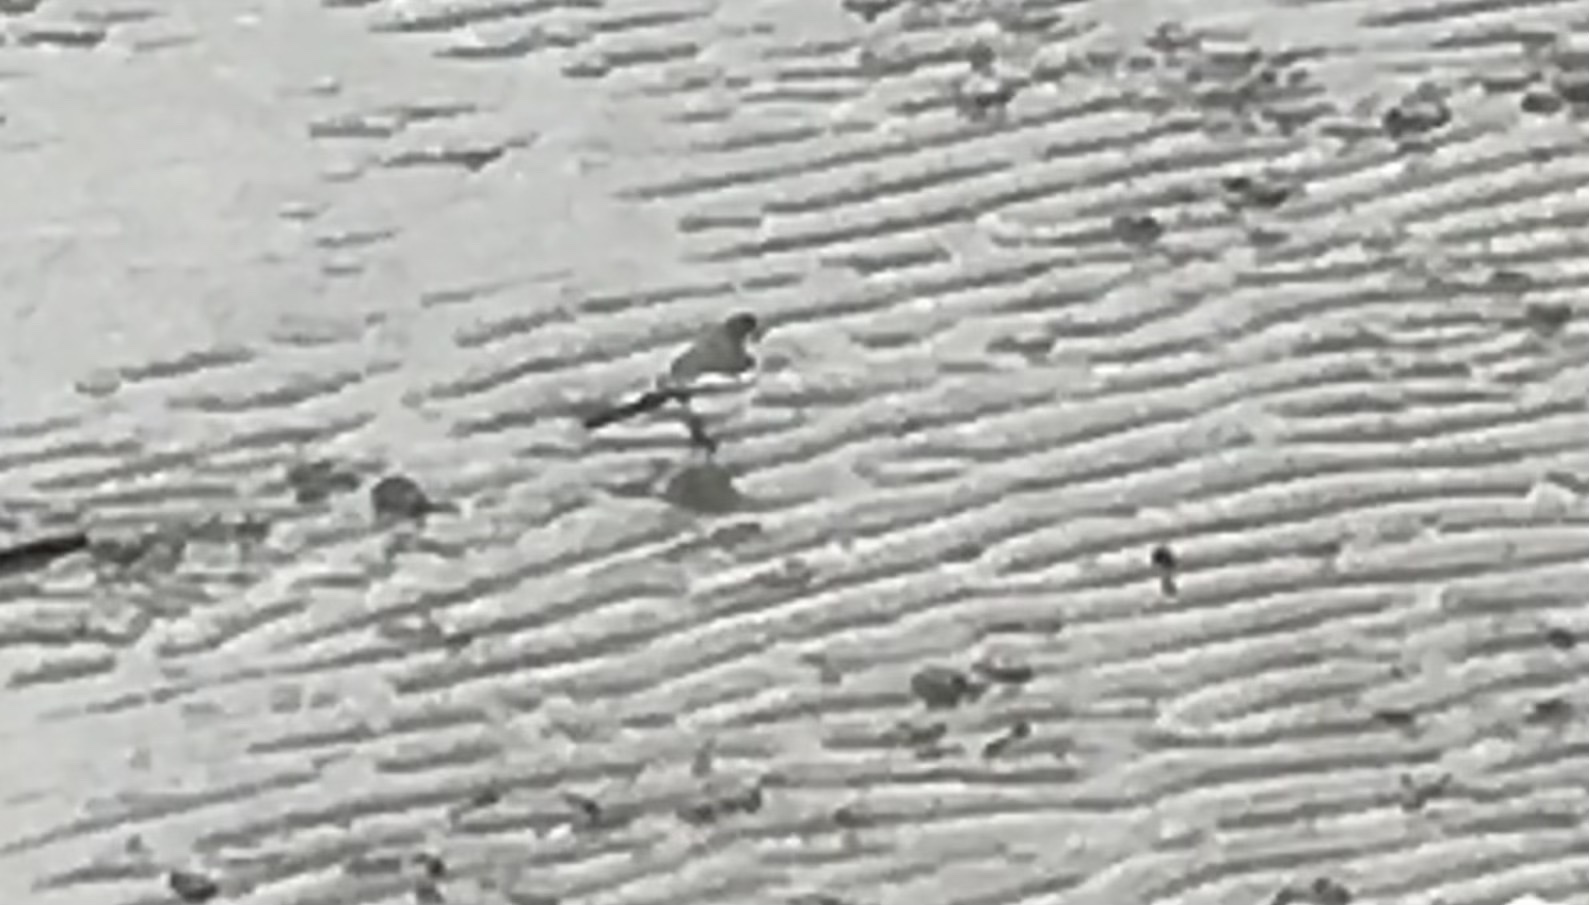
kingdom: Animalia
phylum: Chordata
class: Aves
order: Passeriformes
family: Motacillidae
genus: Motacilla
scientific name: Motacilla alba
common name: White wagtail
